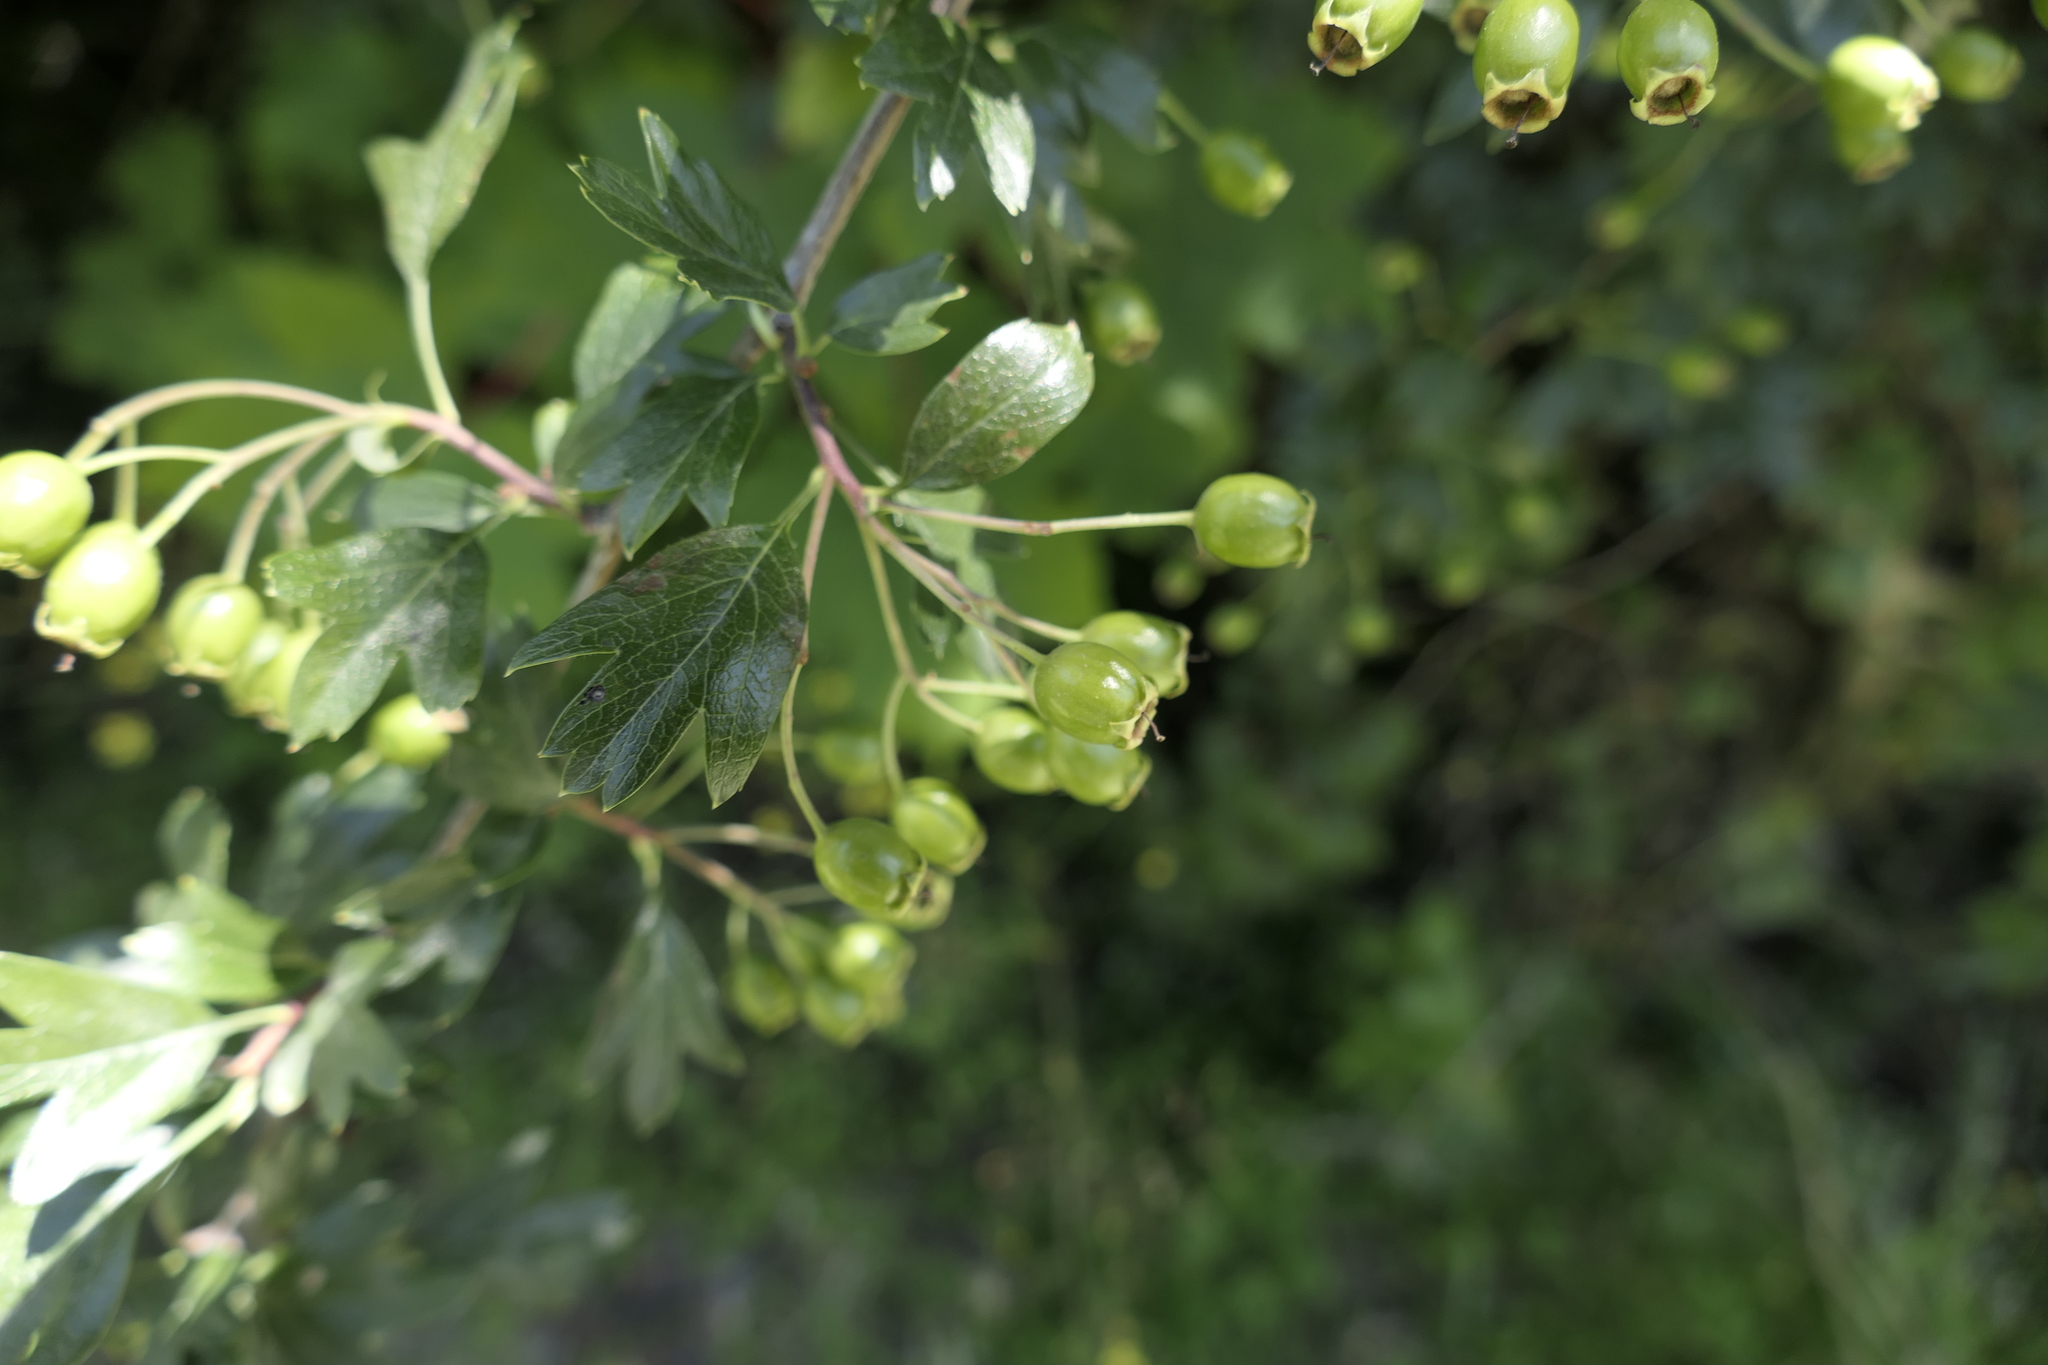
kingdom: Plantae
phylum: Tracheophyta
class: Magnoliopsida
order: Rosales
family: Rosaceae
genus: Crataegus
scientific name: Crataegus monogyna
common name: Hawthorn
